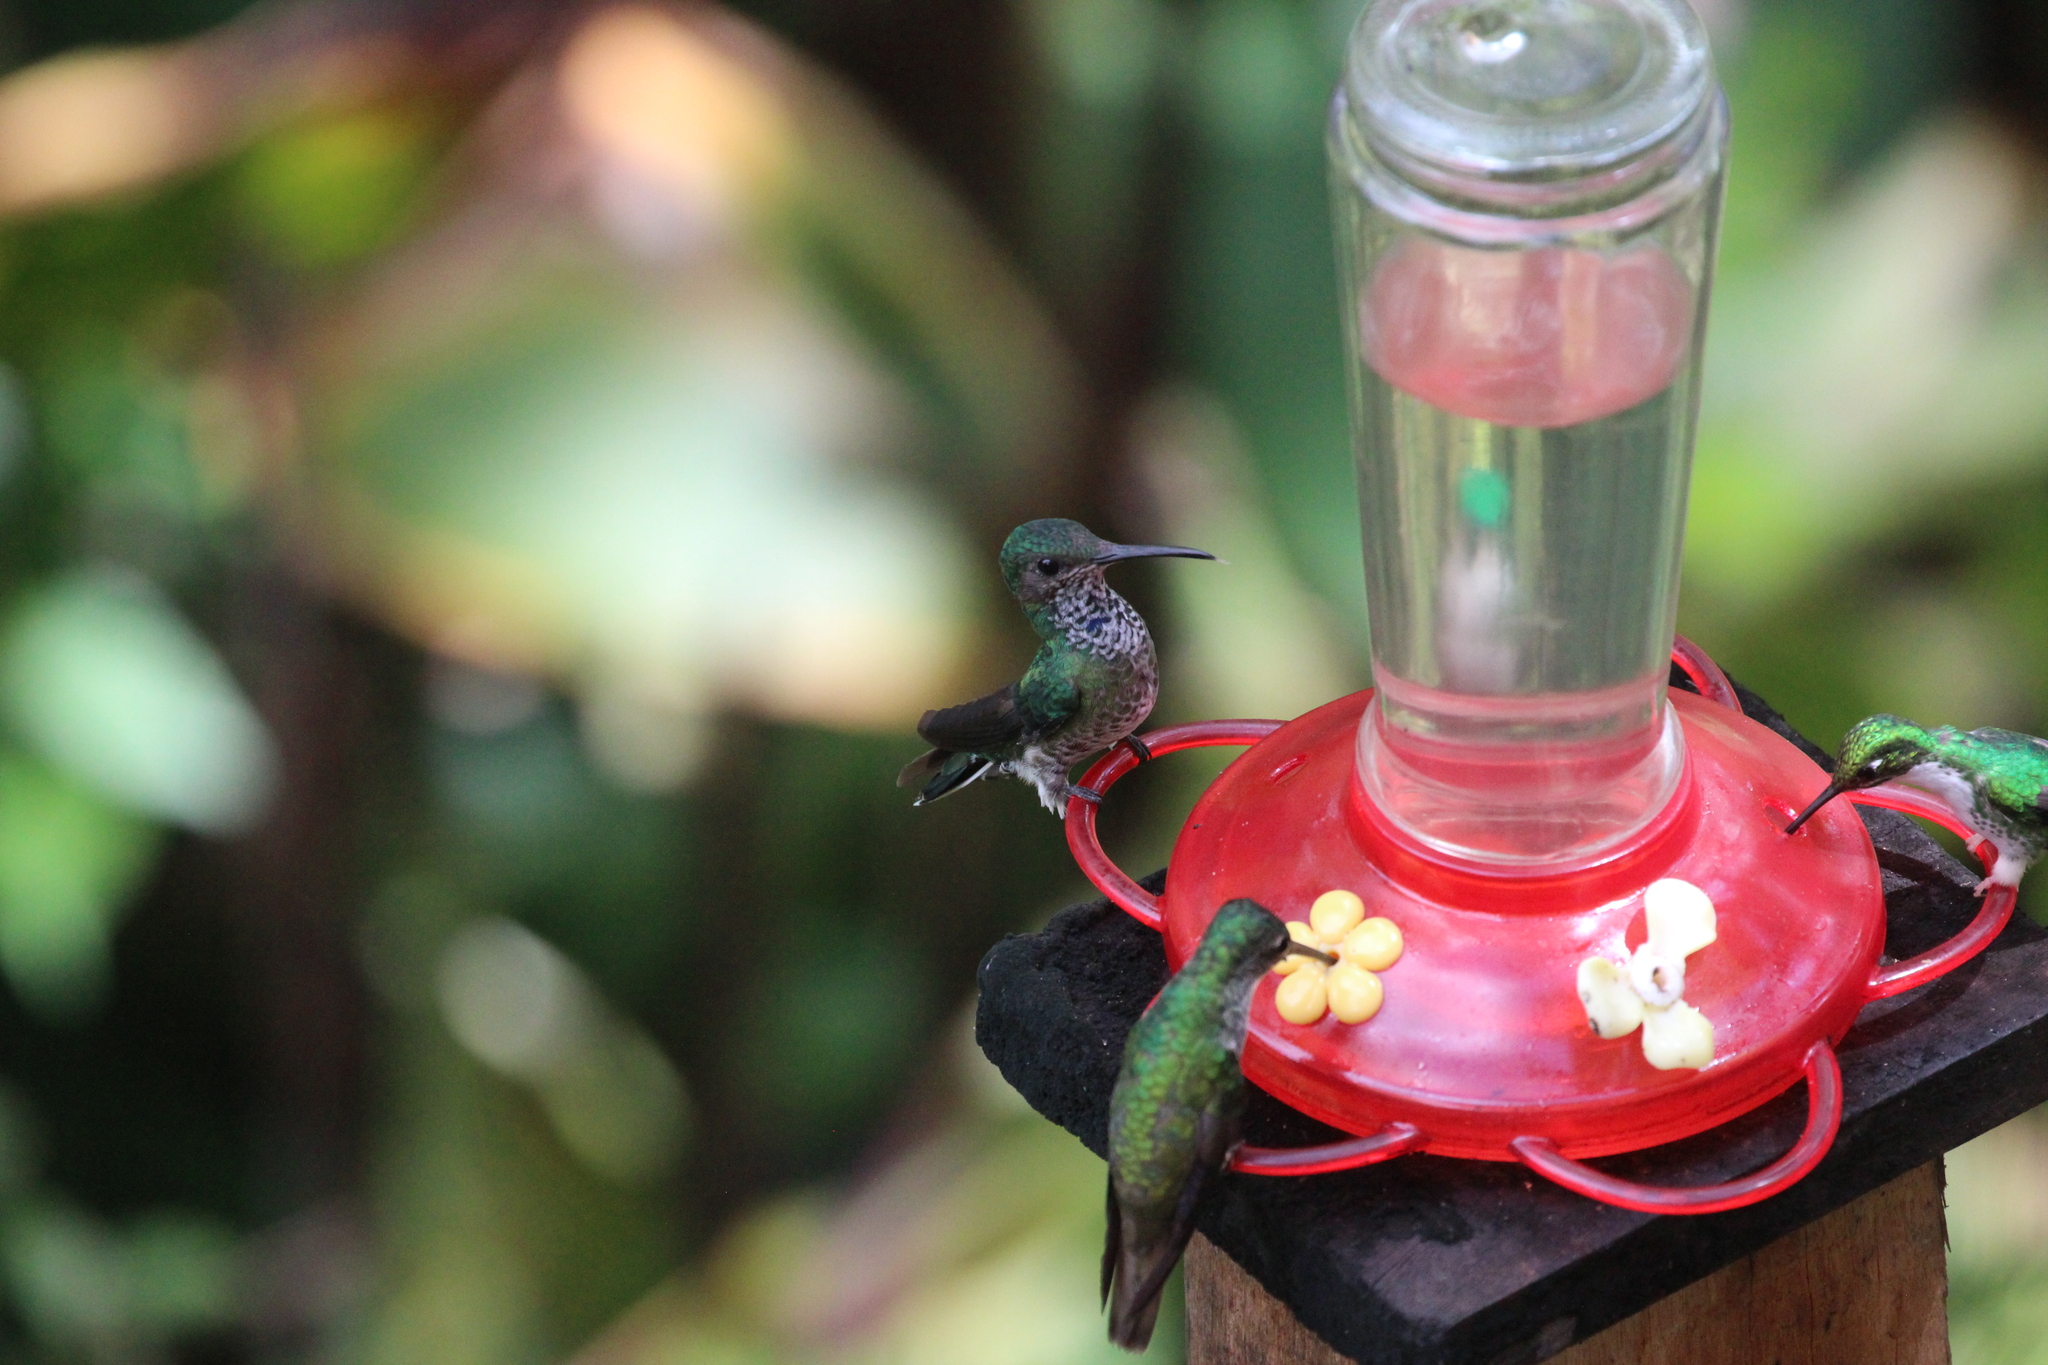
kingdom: Animalia
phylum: Chordata
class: Aves
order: Apodiformes
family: Trochilidae
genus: Florisuga
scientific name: Florisuga mellivora
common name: White-necked jacobin
